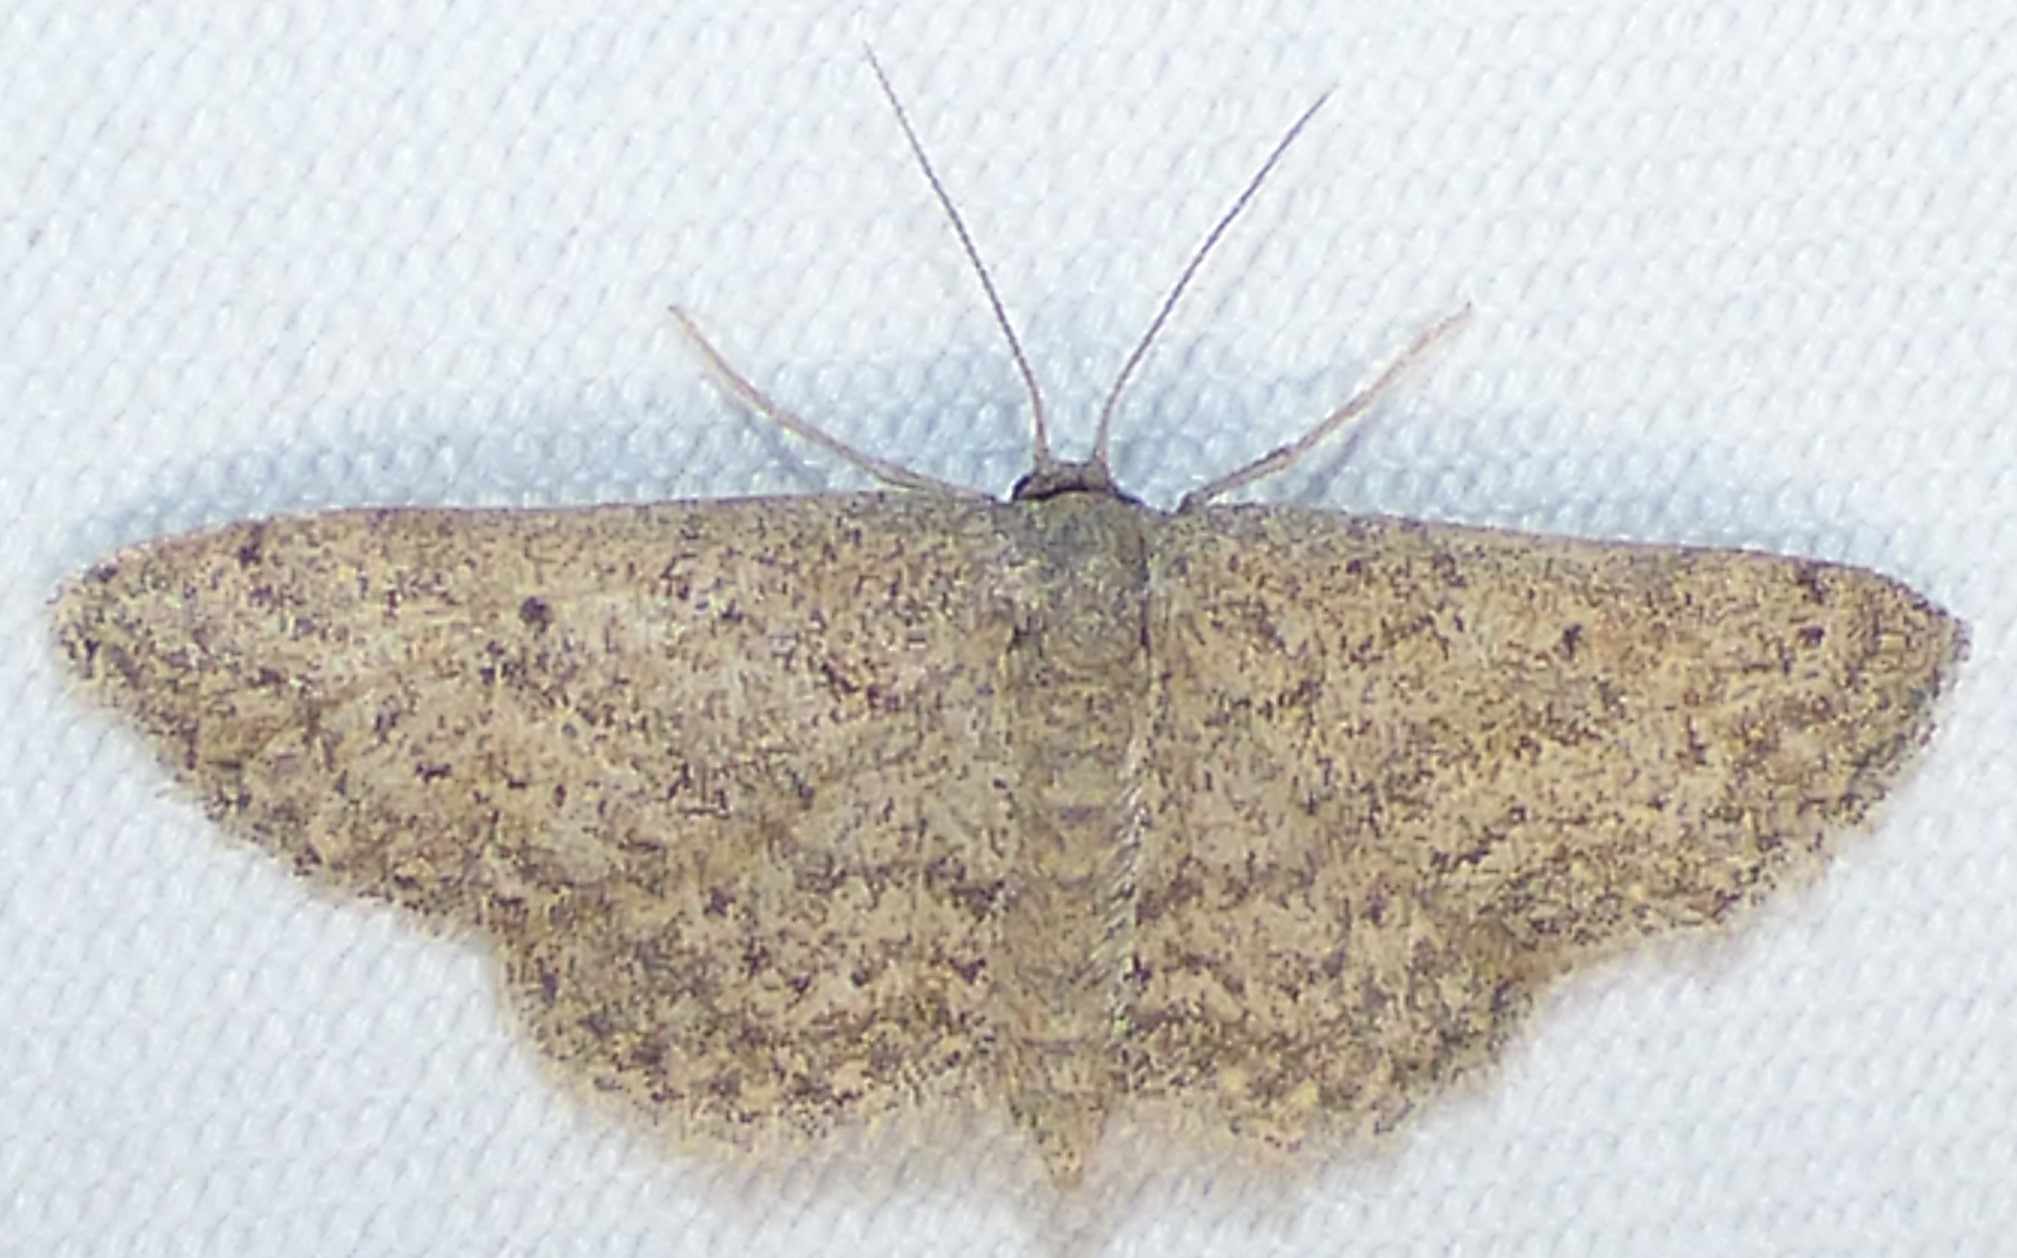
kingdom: Animalia
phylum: Arthropoda
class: Insecta
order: Lepidoptera
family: Geometridae
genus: Lobocleta
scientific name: Lobocleta ossularia
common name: Drab brown wave
